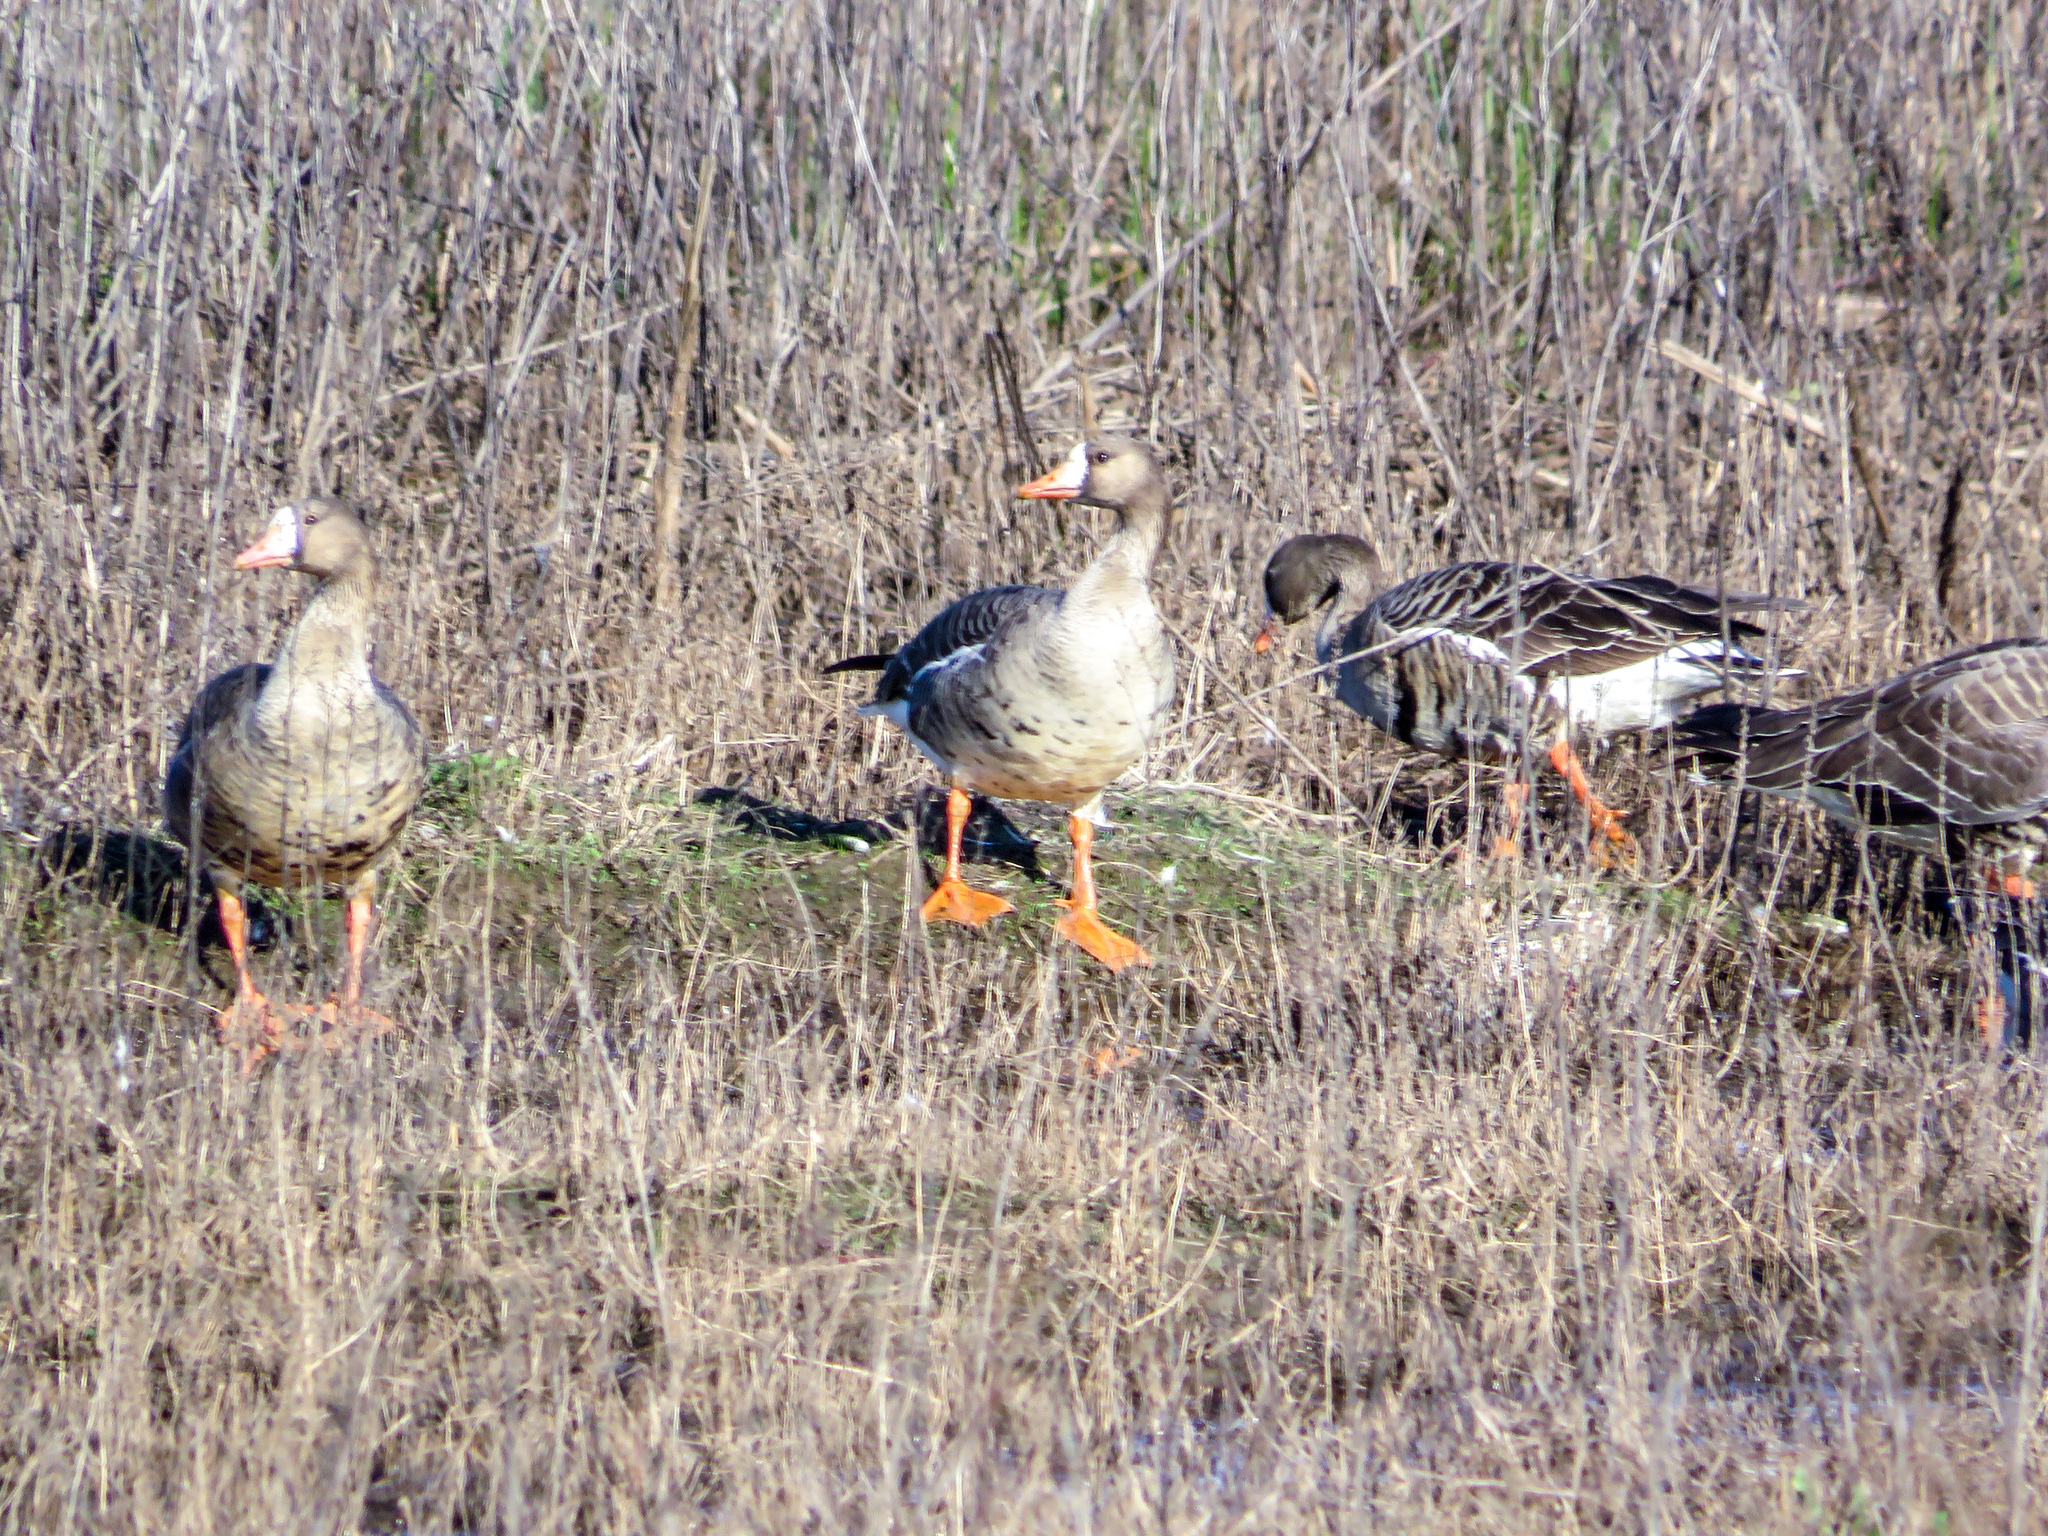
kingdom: Animalia
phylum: Chordata
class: Aves
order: Anseriformes
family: Anatidae
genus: Anser
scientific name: Anser albifrons
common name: Greater white-fronted goose
